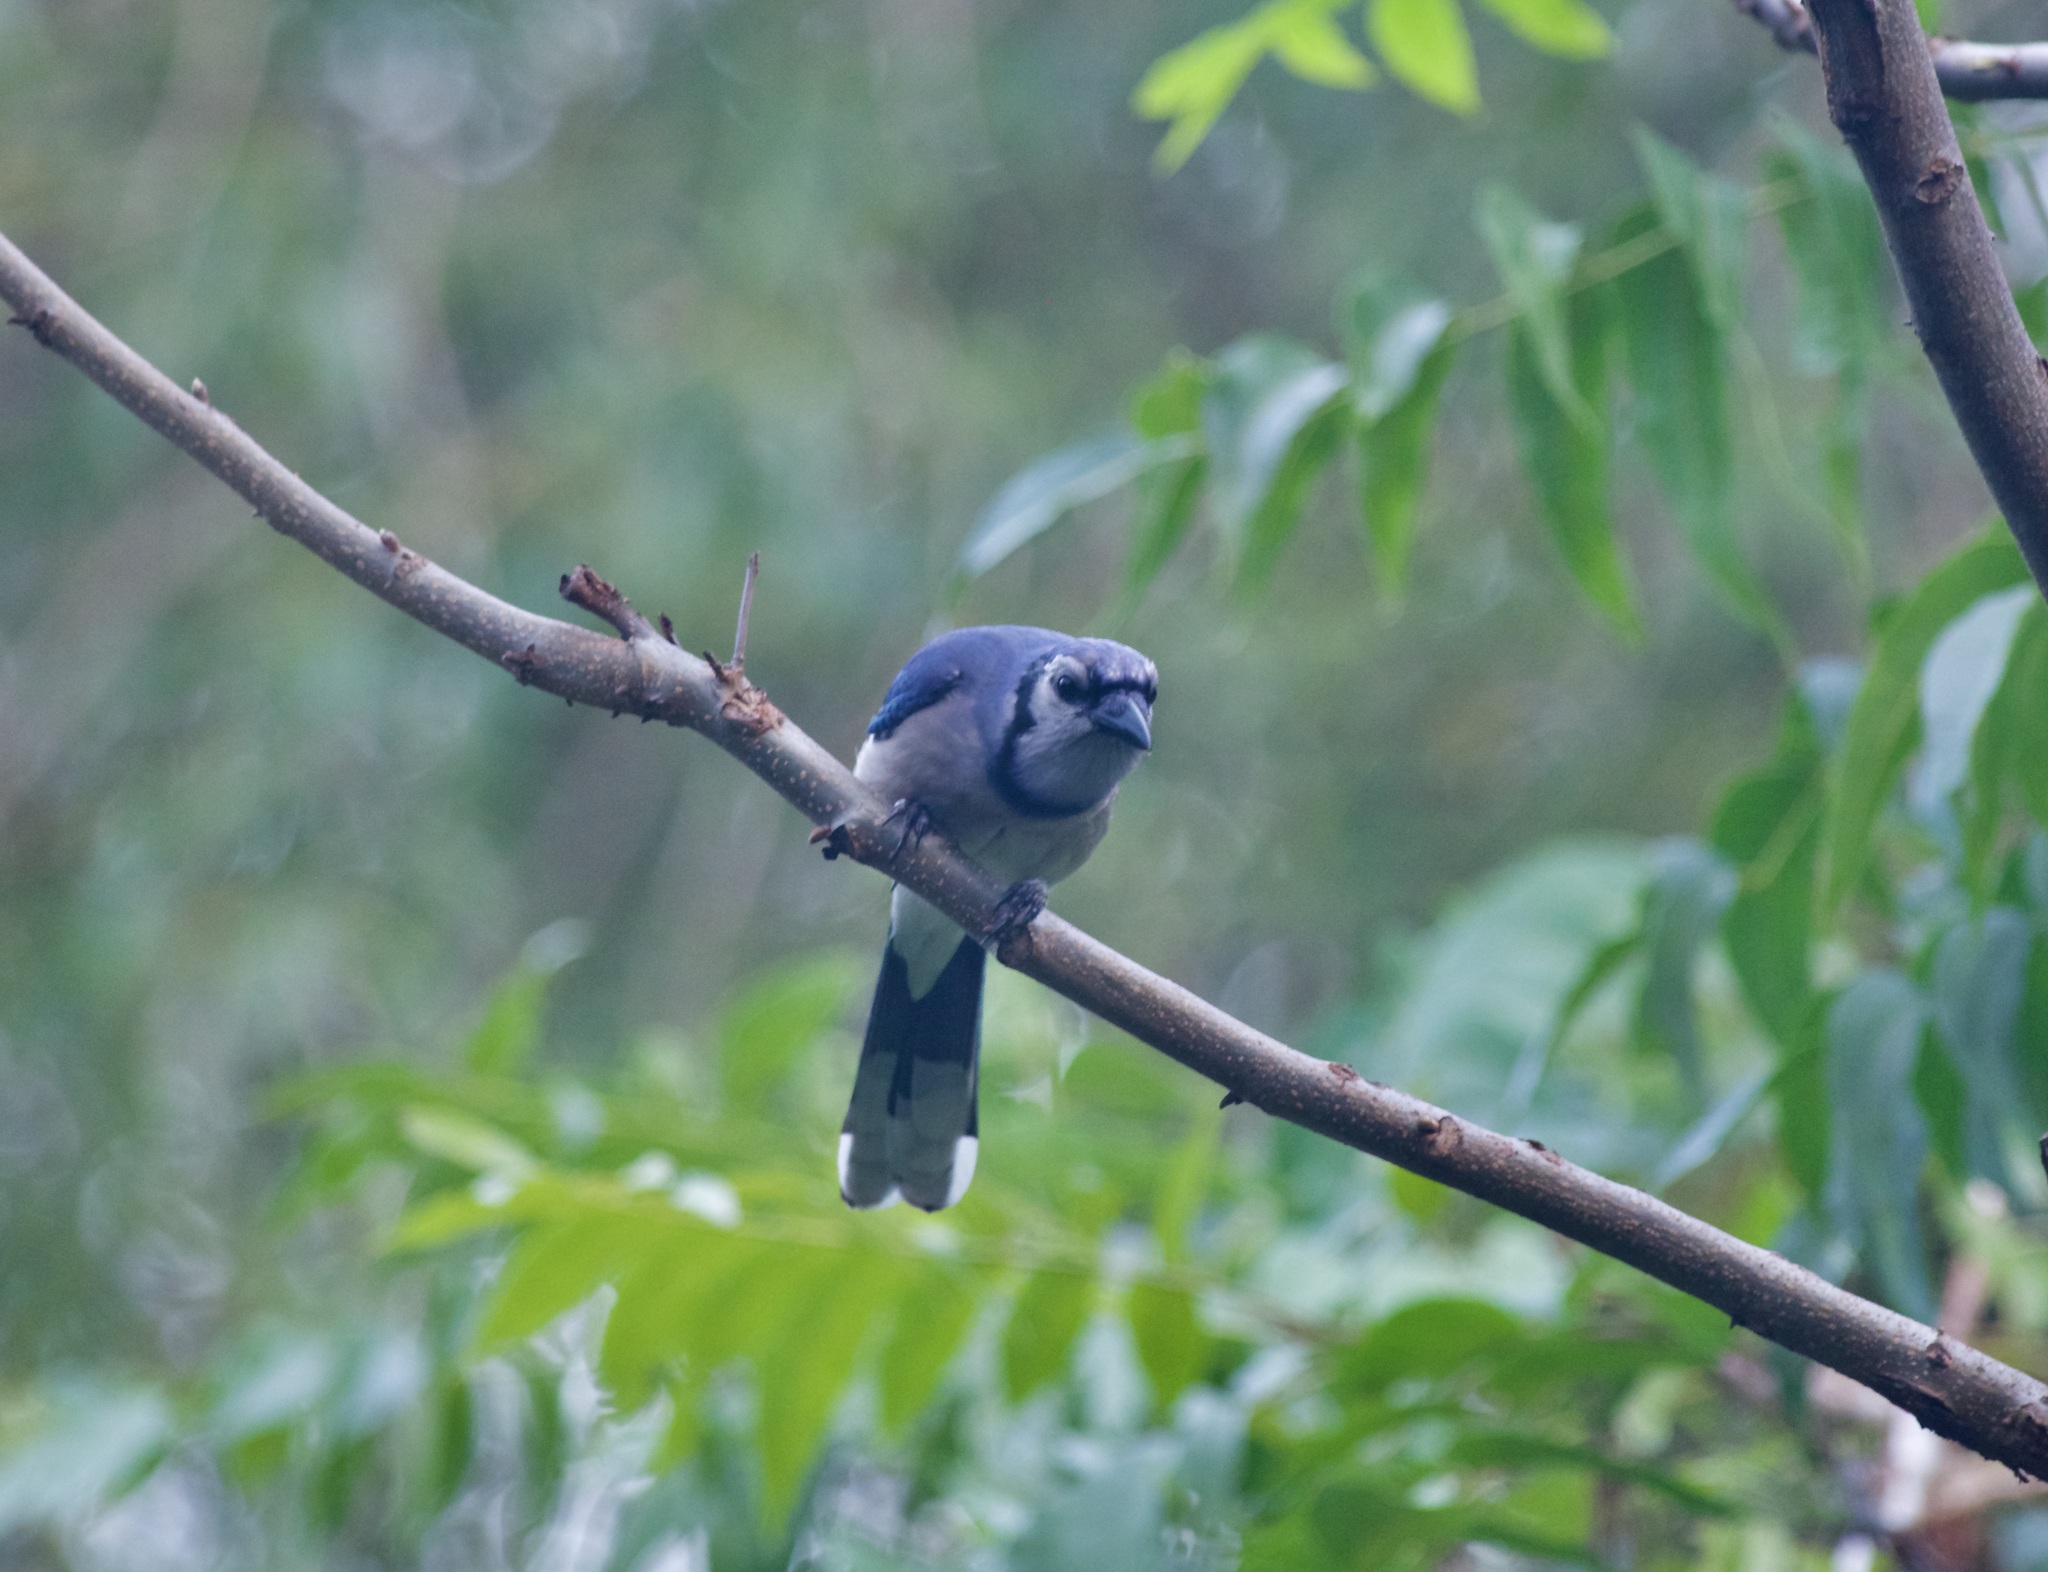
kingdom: Animalia
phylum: Chordata
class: Aves
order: Passeriformes
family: Corvidae
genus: Cyanocitta
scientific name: Cyanocitta cristata
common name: Blue jay
